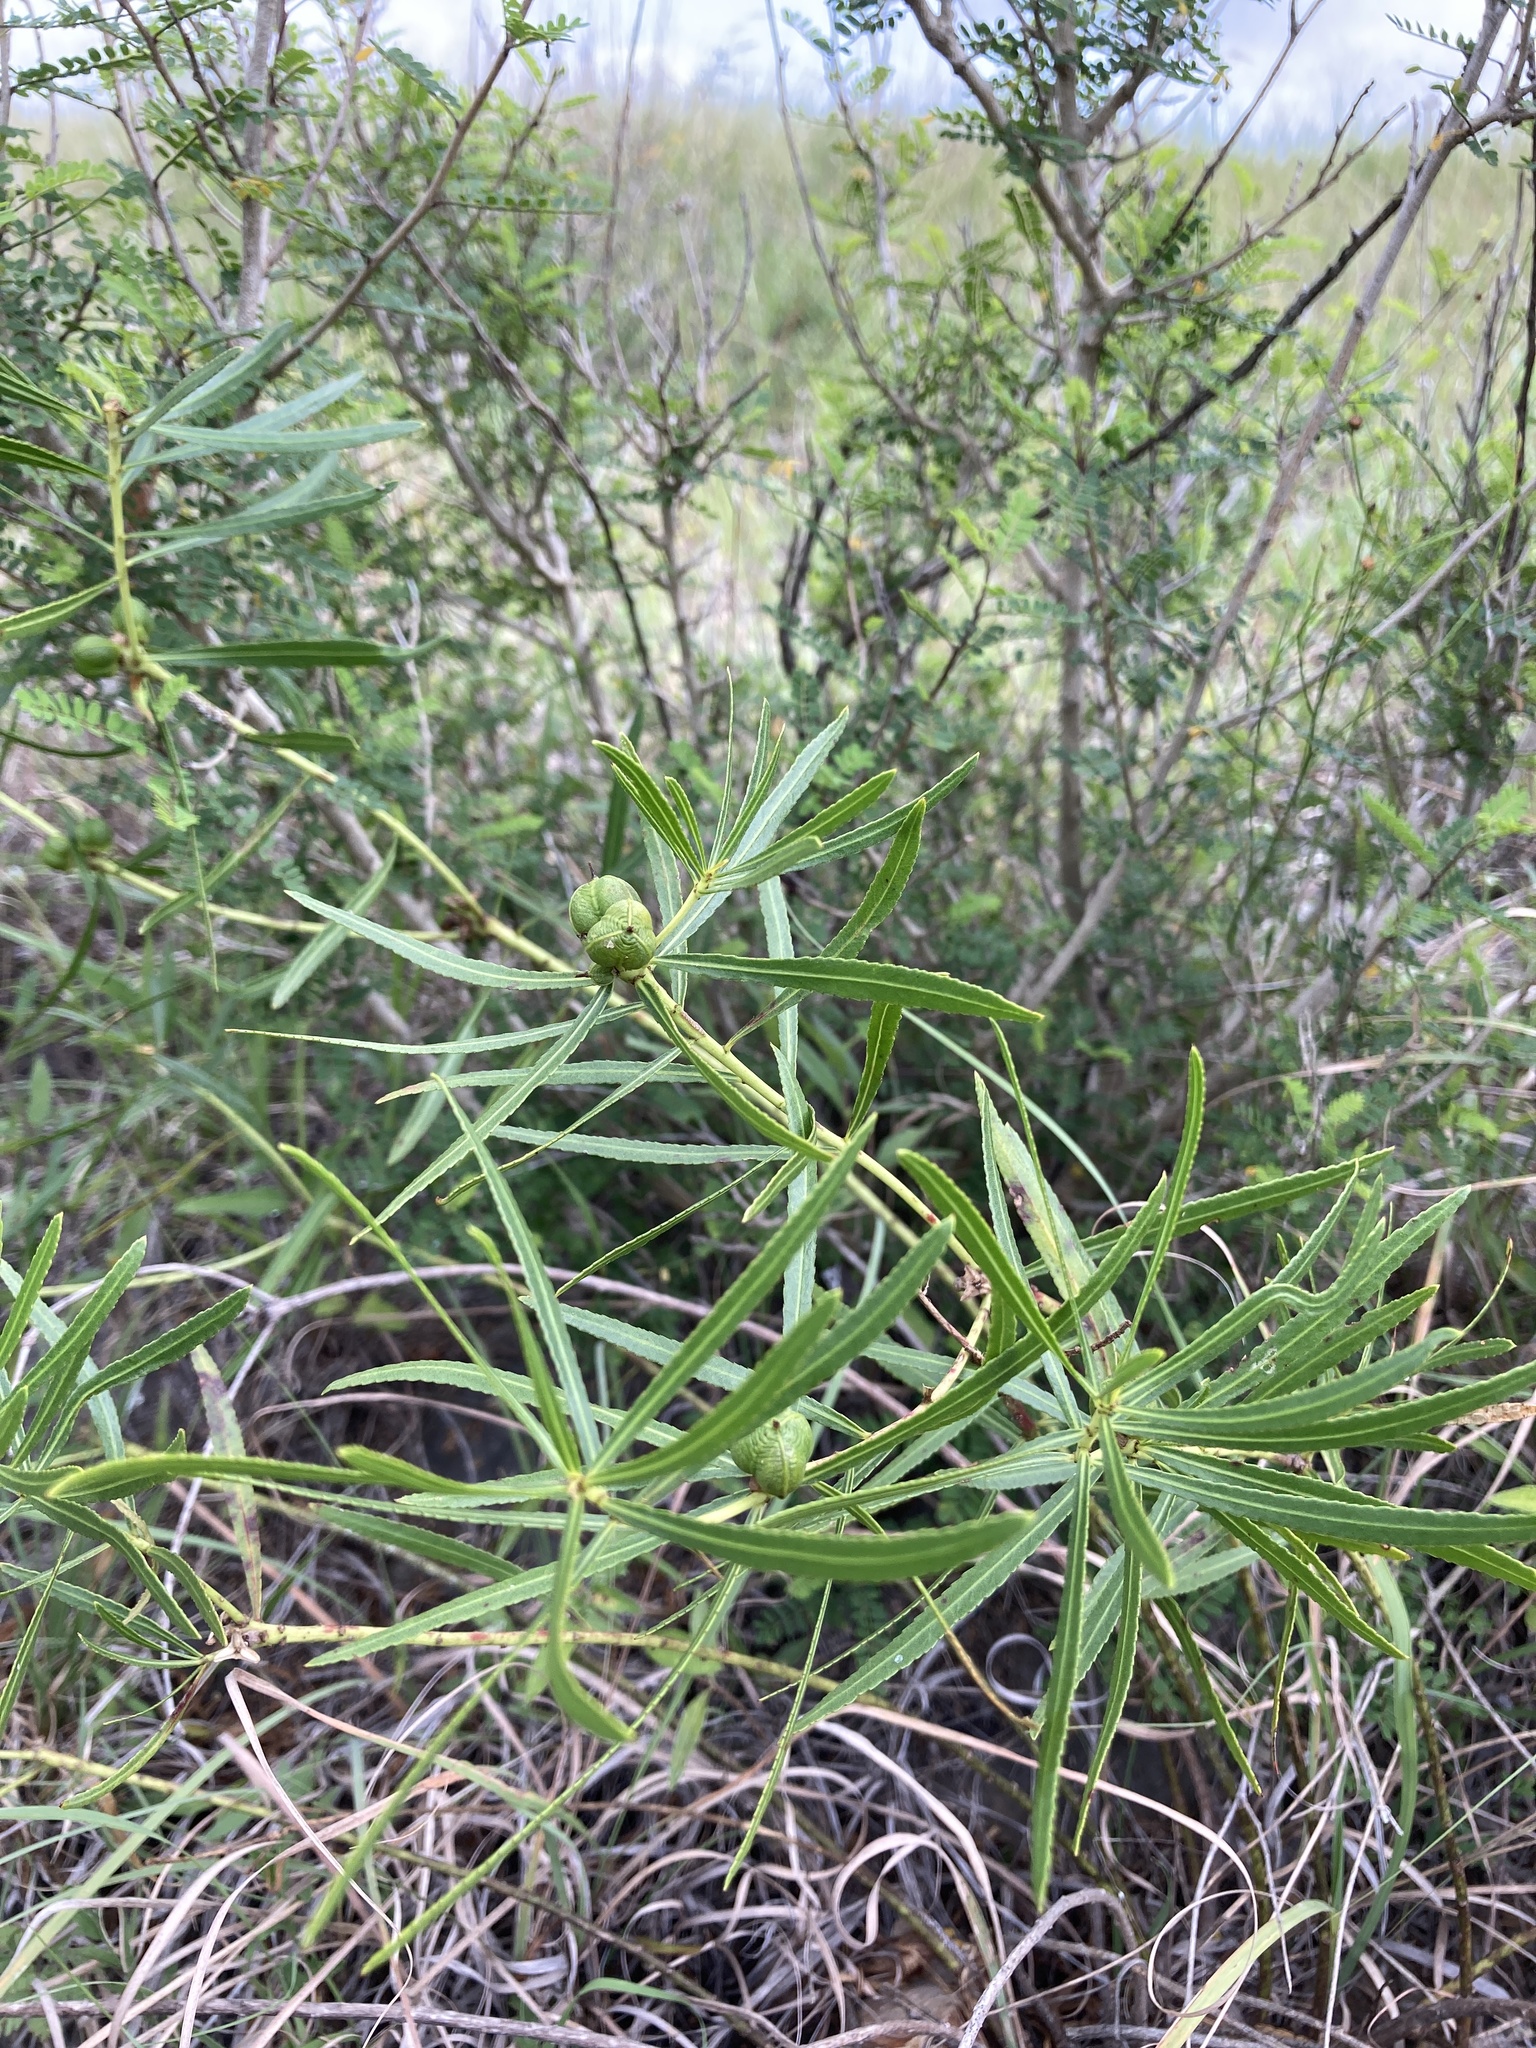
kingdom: Plantae
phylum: Tracheophyta
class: Magnoliopsida
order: Malpighiales
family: Euphorbiaceae
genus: Stillingia
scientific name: Stillingia texana
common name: Texas stillingia
